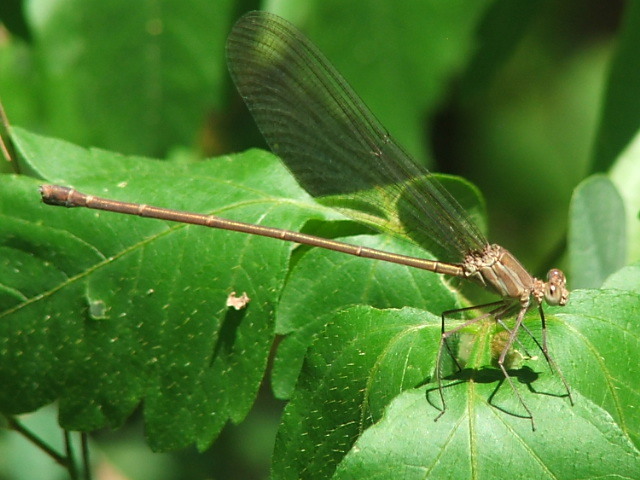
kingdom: Animalia
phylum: Arthropoda
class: Insecta
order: Odonata
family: Calopterygidae
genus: Phaon
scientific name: Phaon iridipennis
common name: Glistening demoiselle
